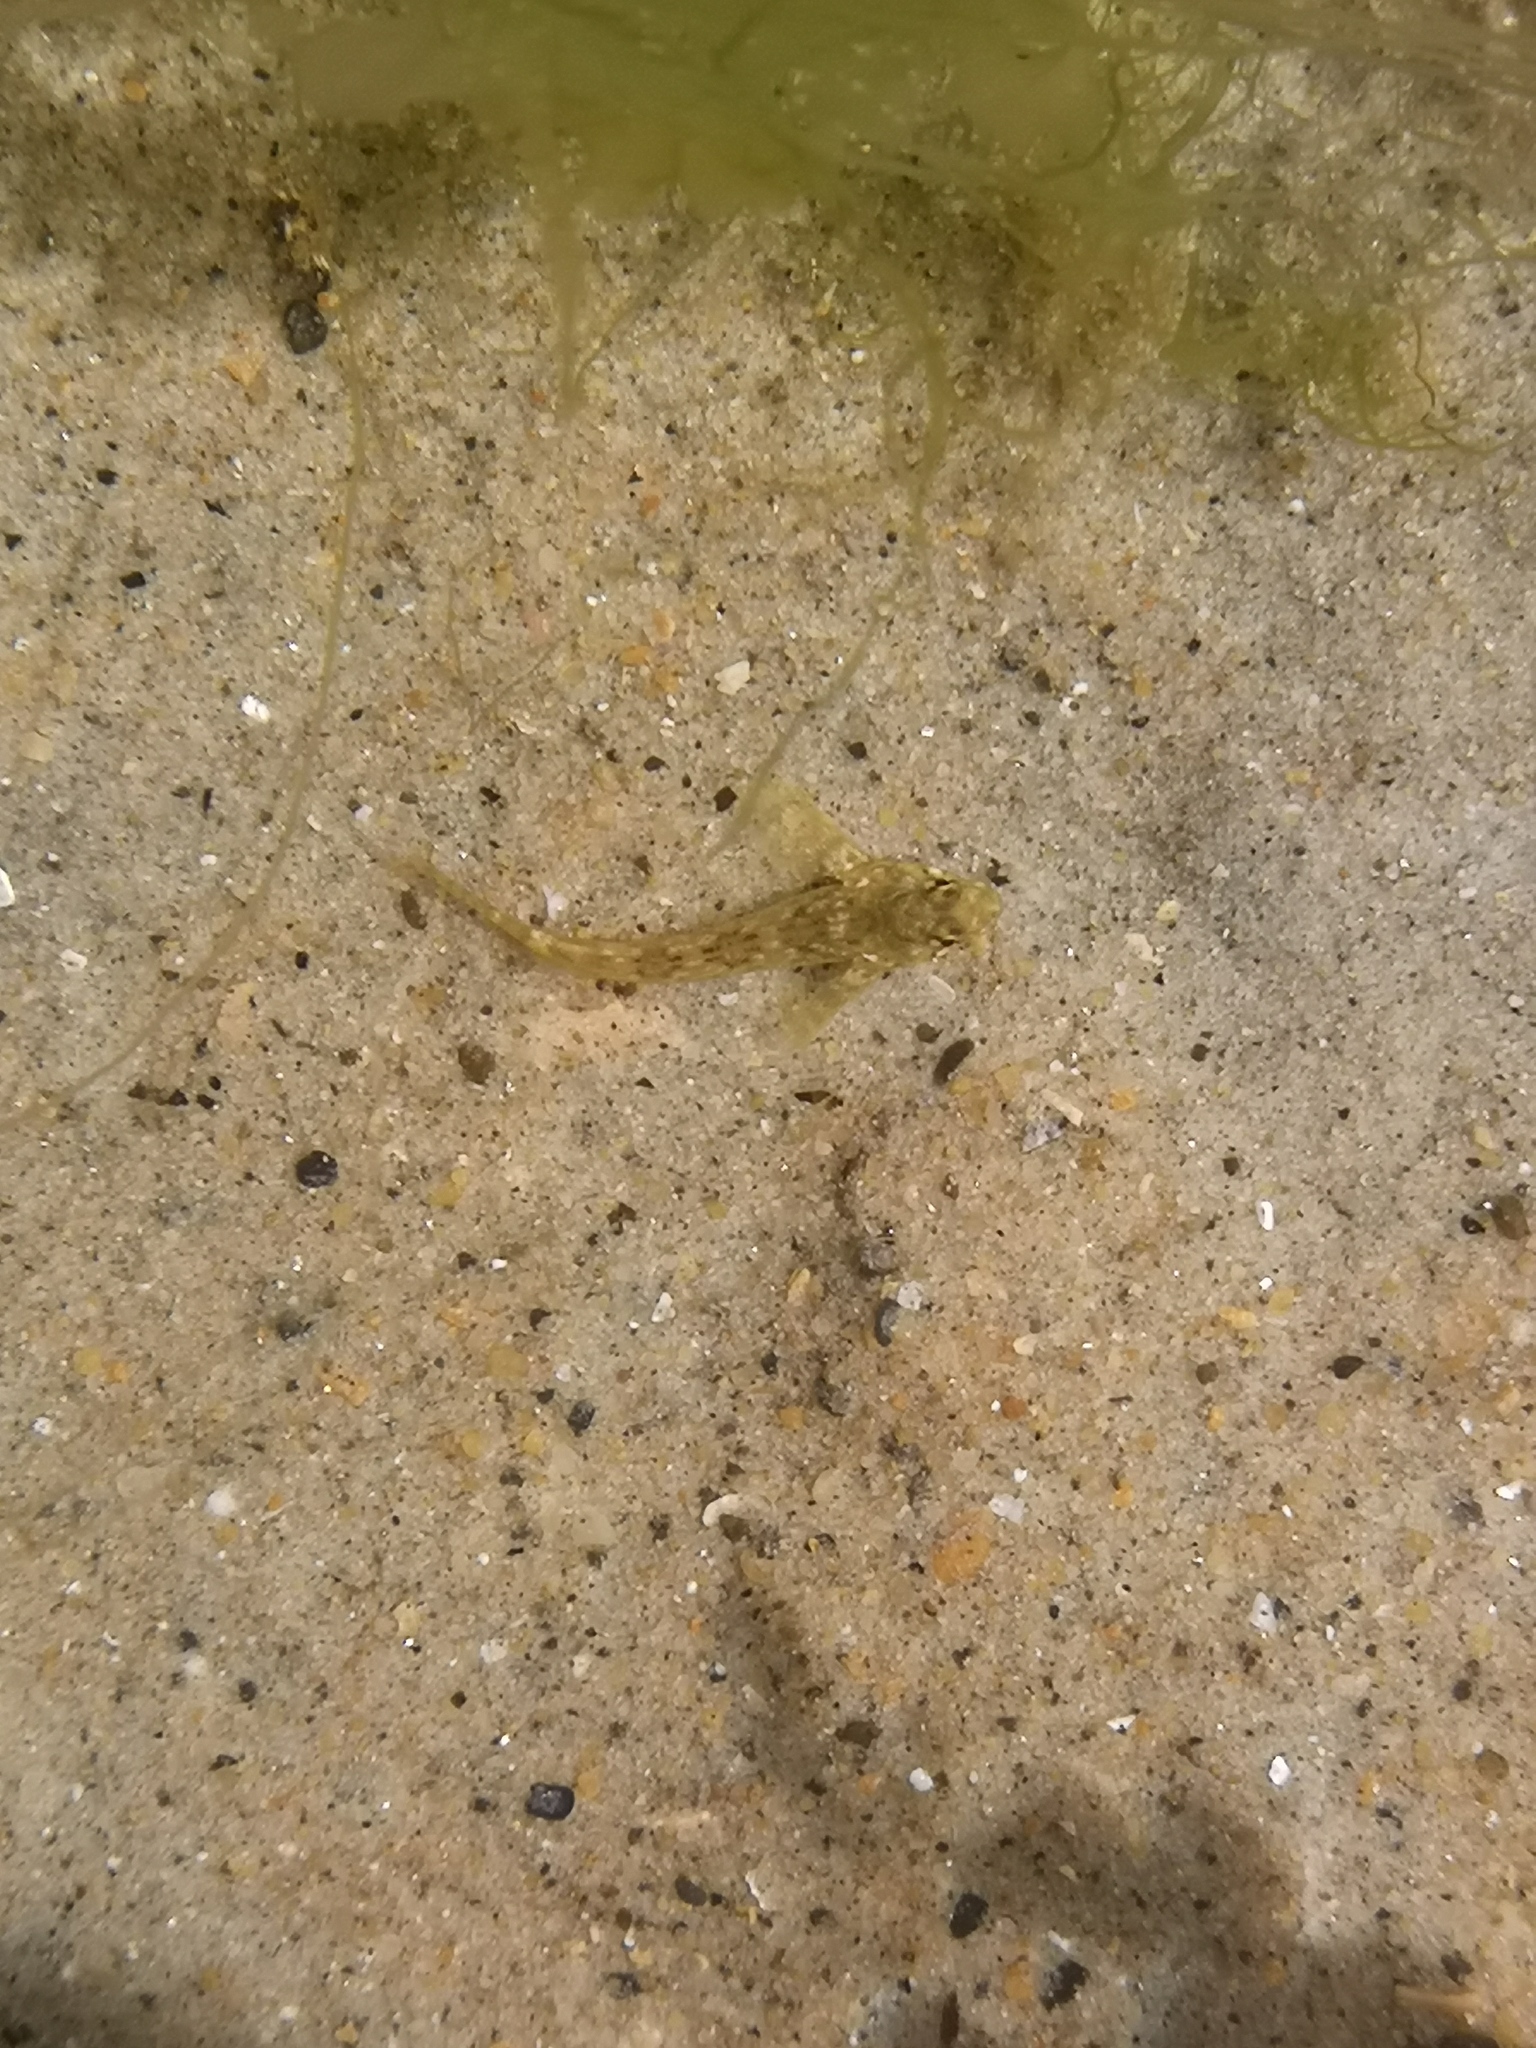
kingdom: Animalia
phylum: Chordata
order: Perciformes
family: Tripterygiidae
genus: Bellapiscis
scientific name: Bellapiscis medius
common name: Twister
